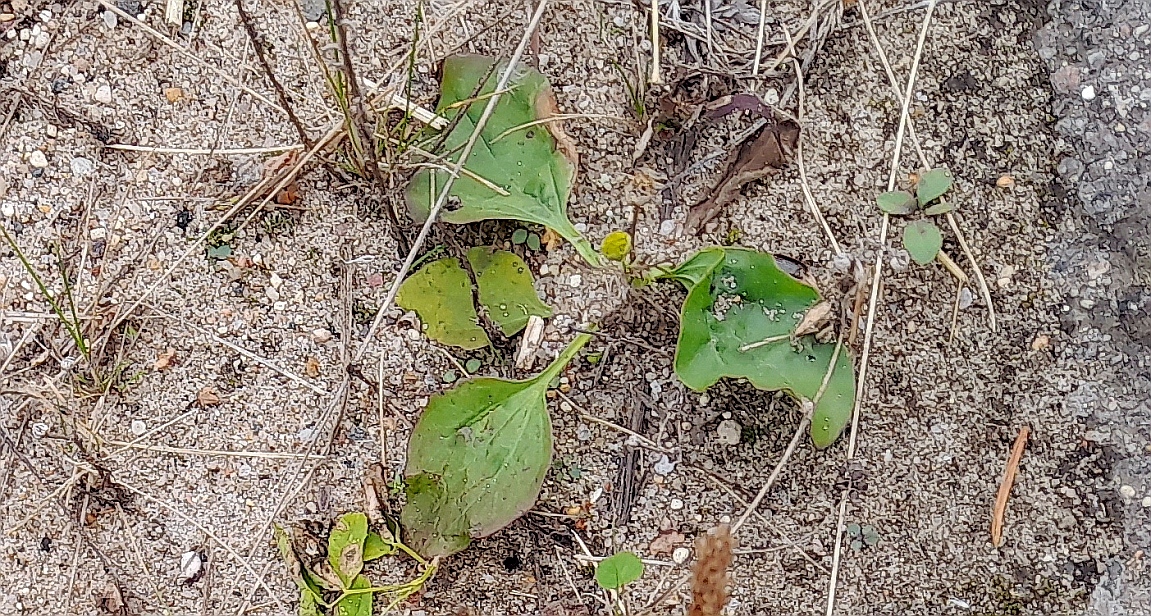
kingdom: Plantae
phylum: Tracheophyta
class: Magnoliopsida
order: Lamiales
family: Plantaginaceae
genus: Plantago
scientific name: Plantago major
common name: Common plantain
